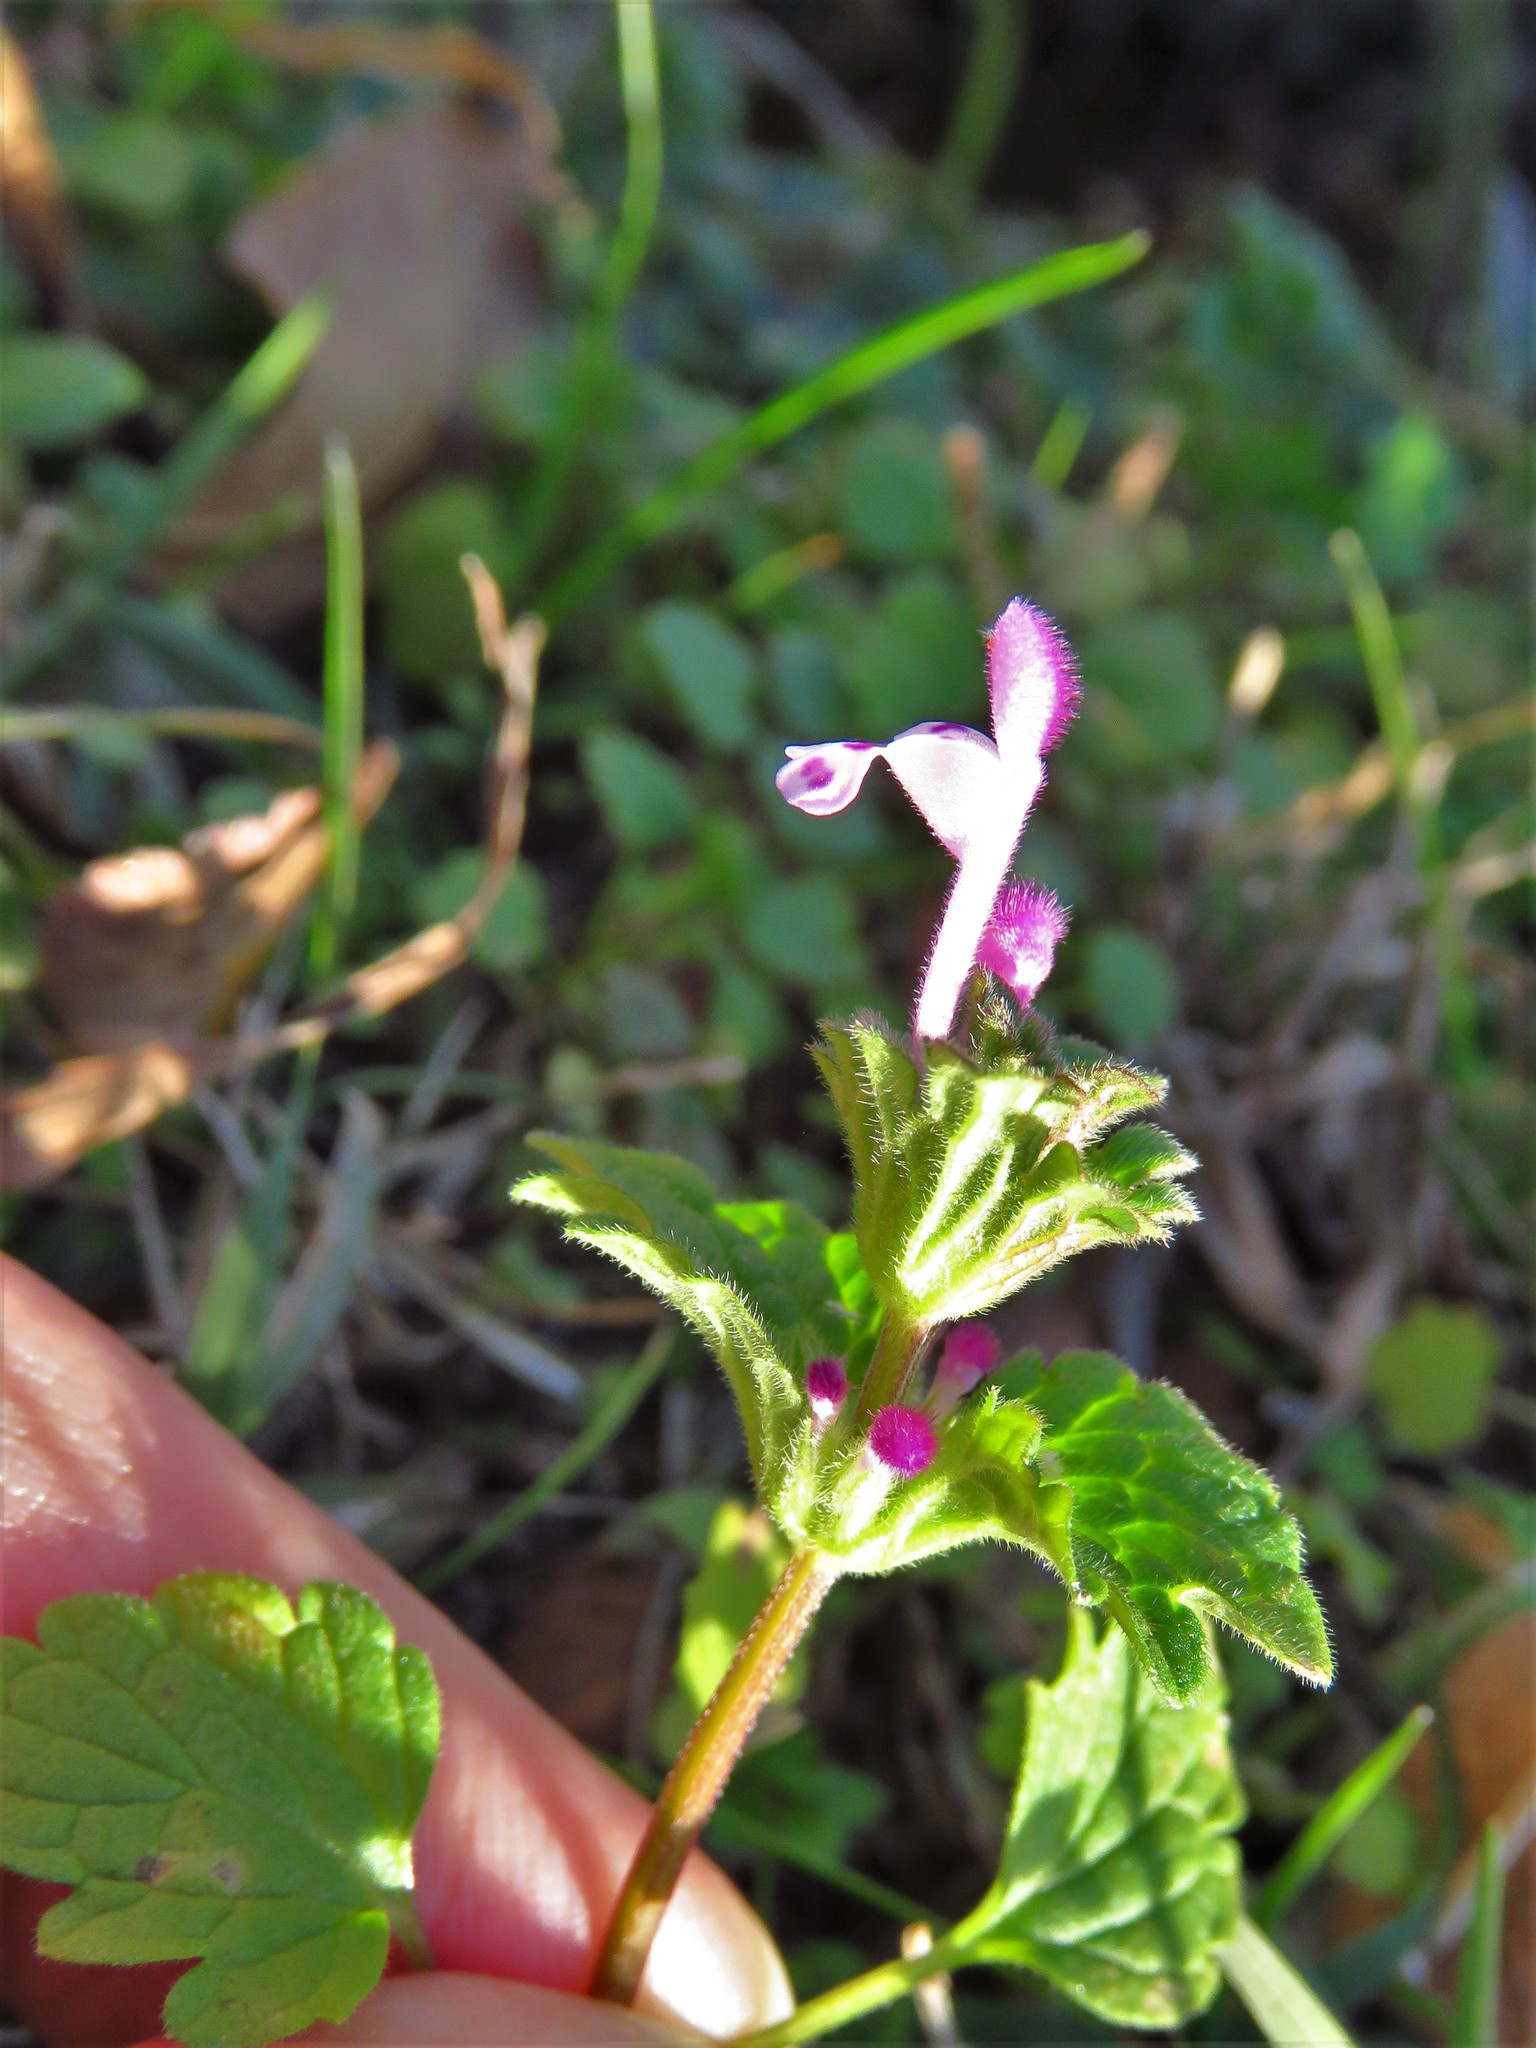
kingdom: Plantae
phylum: Tracheophyta
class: Magnoliopsida
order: Lamiales
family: Lamiaceae
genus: Lamium
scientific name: Lamium amplexicaule
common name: Henbit dead-nettle
